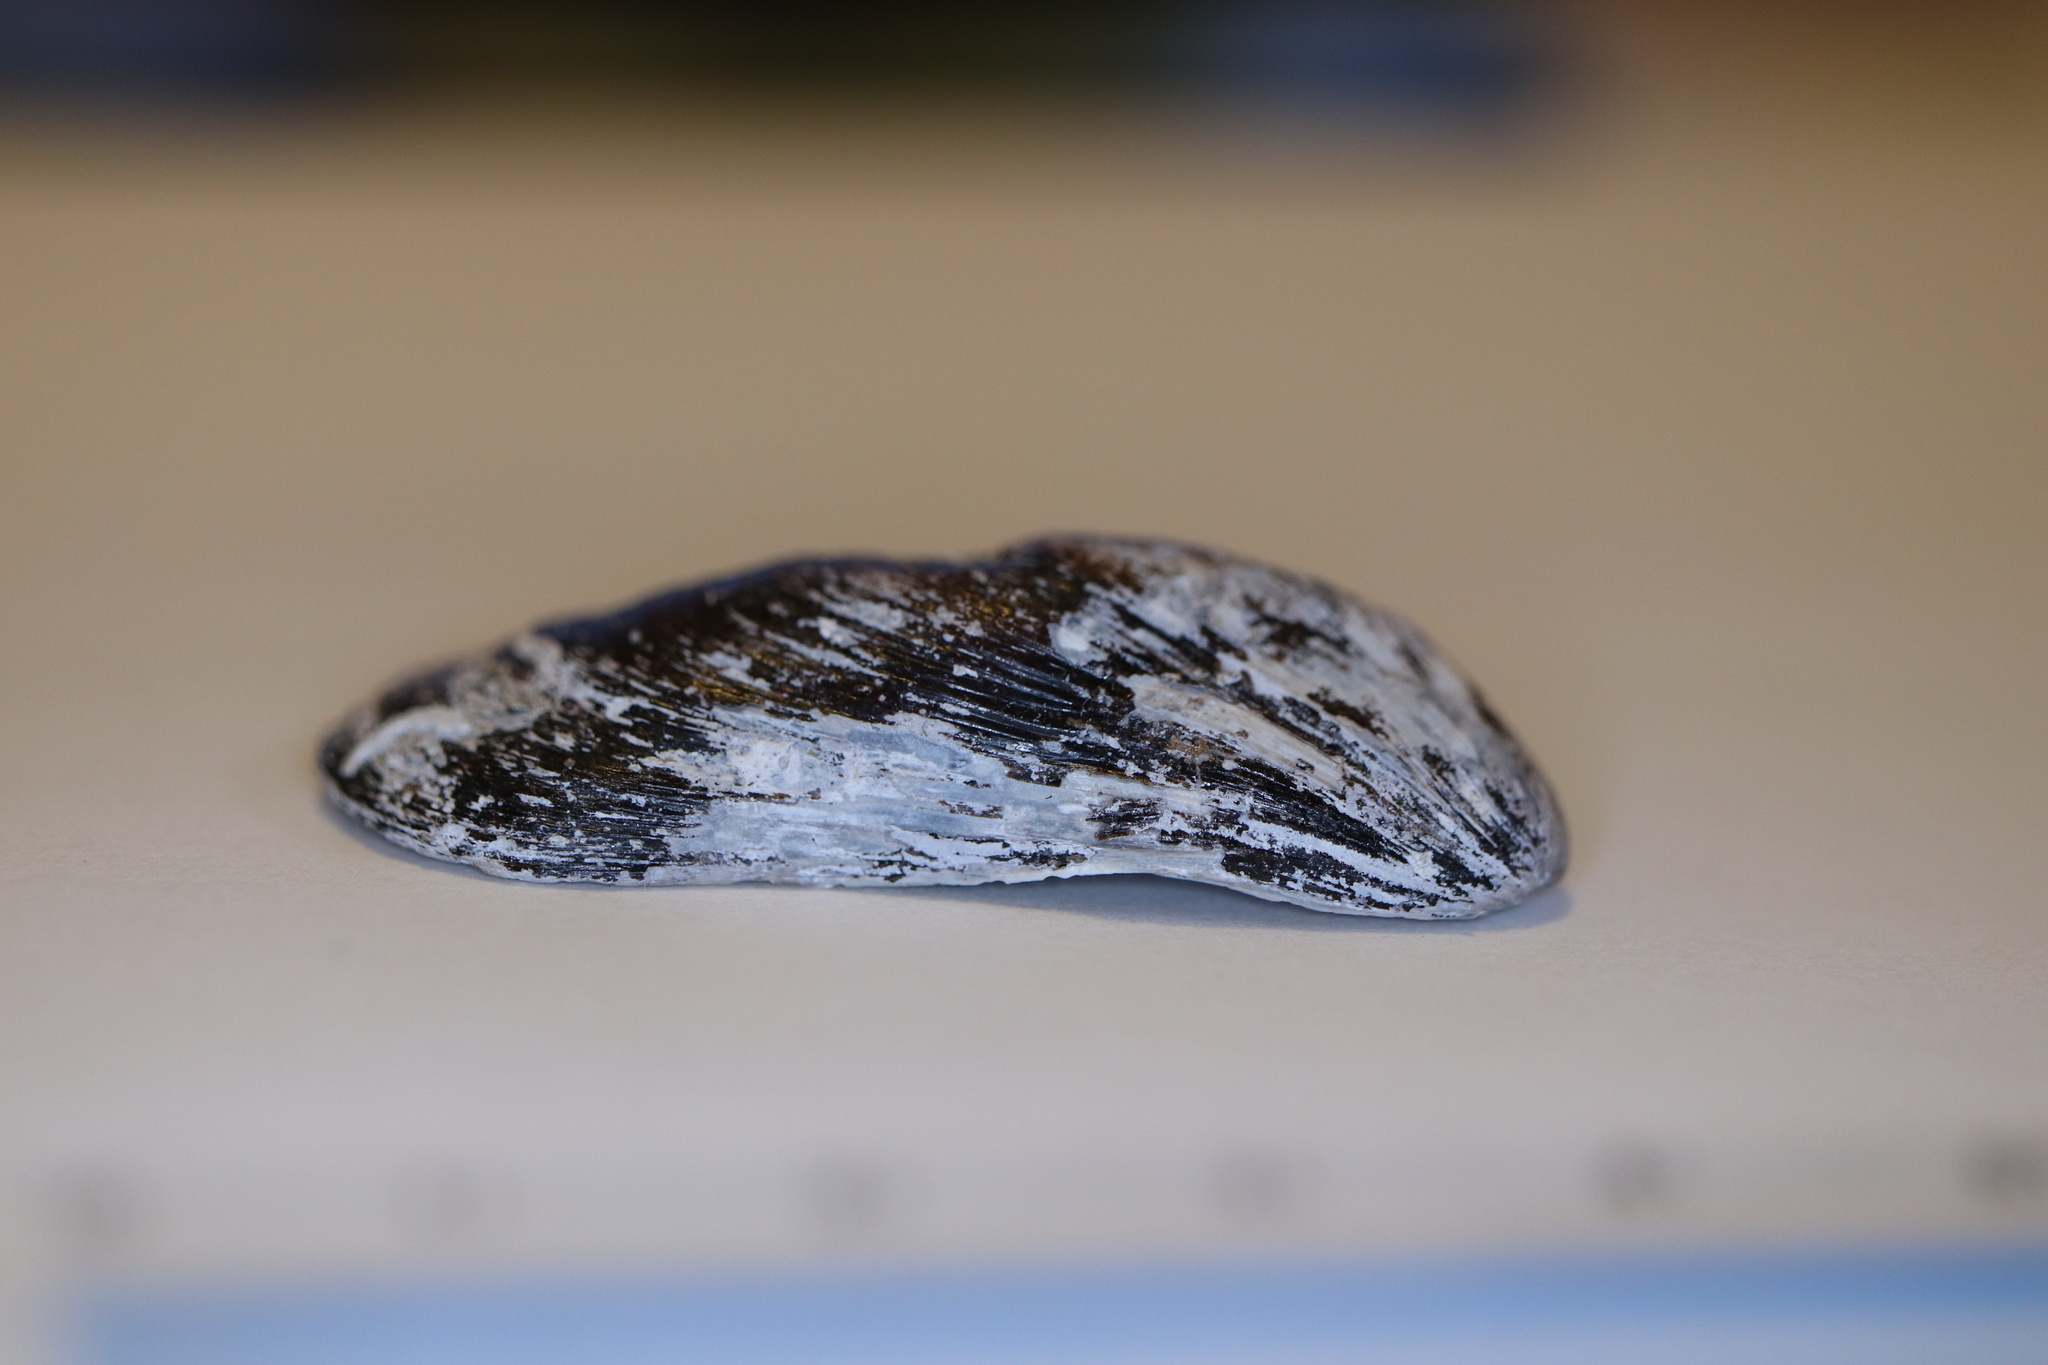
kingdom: Animalia
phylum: Mollusca
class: Bivalvia
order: Mytilida
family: Mytilidae
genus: Modiolus
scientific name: Modiolus nipponicus
